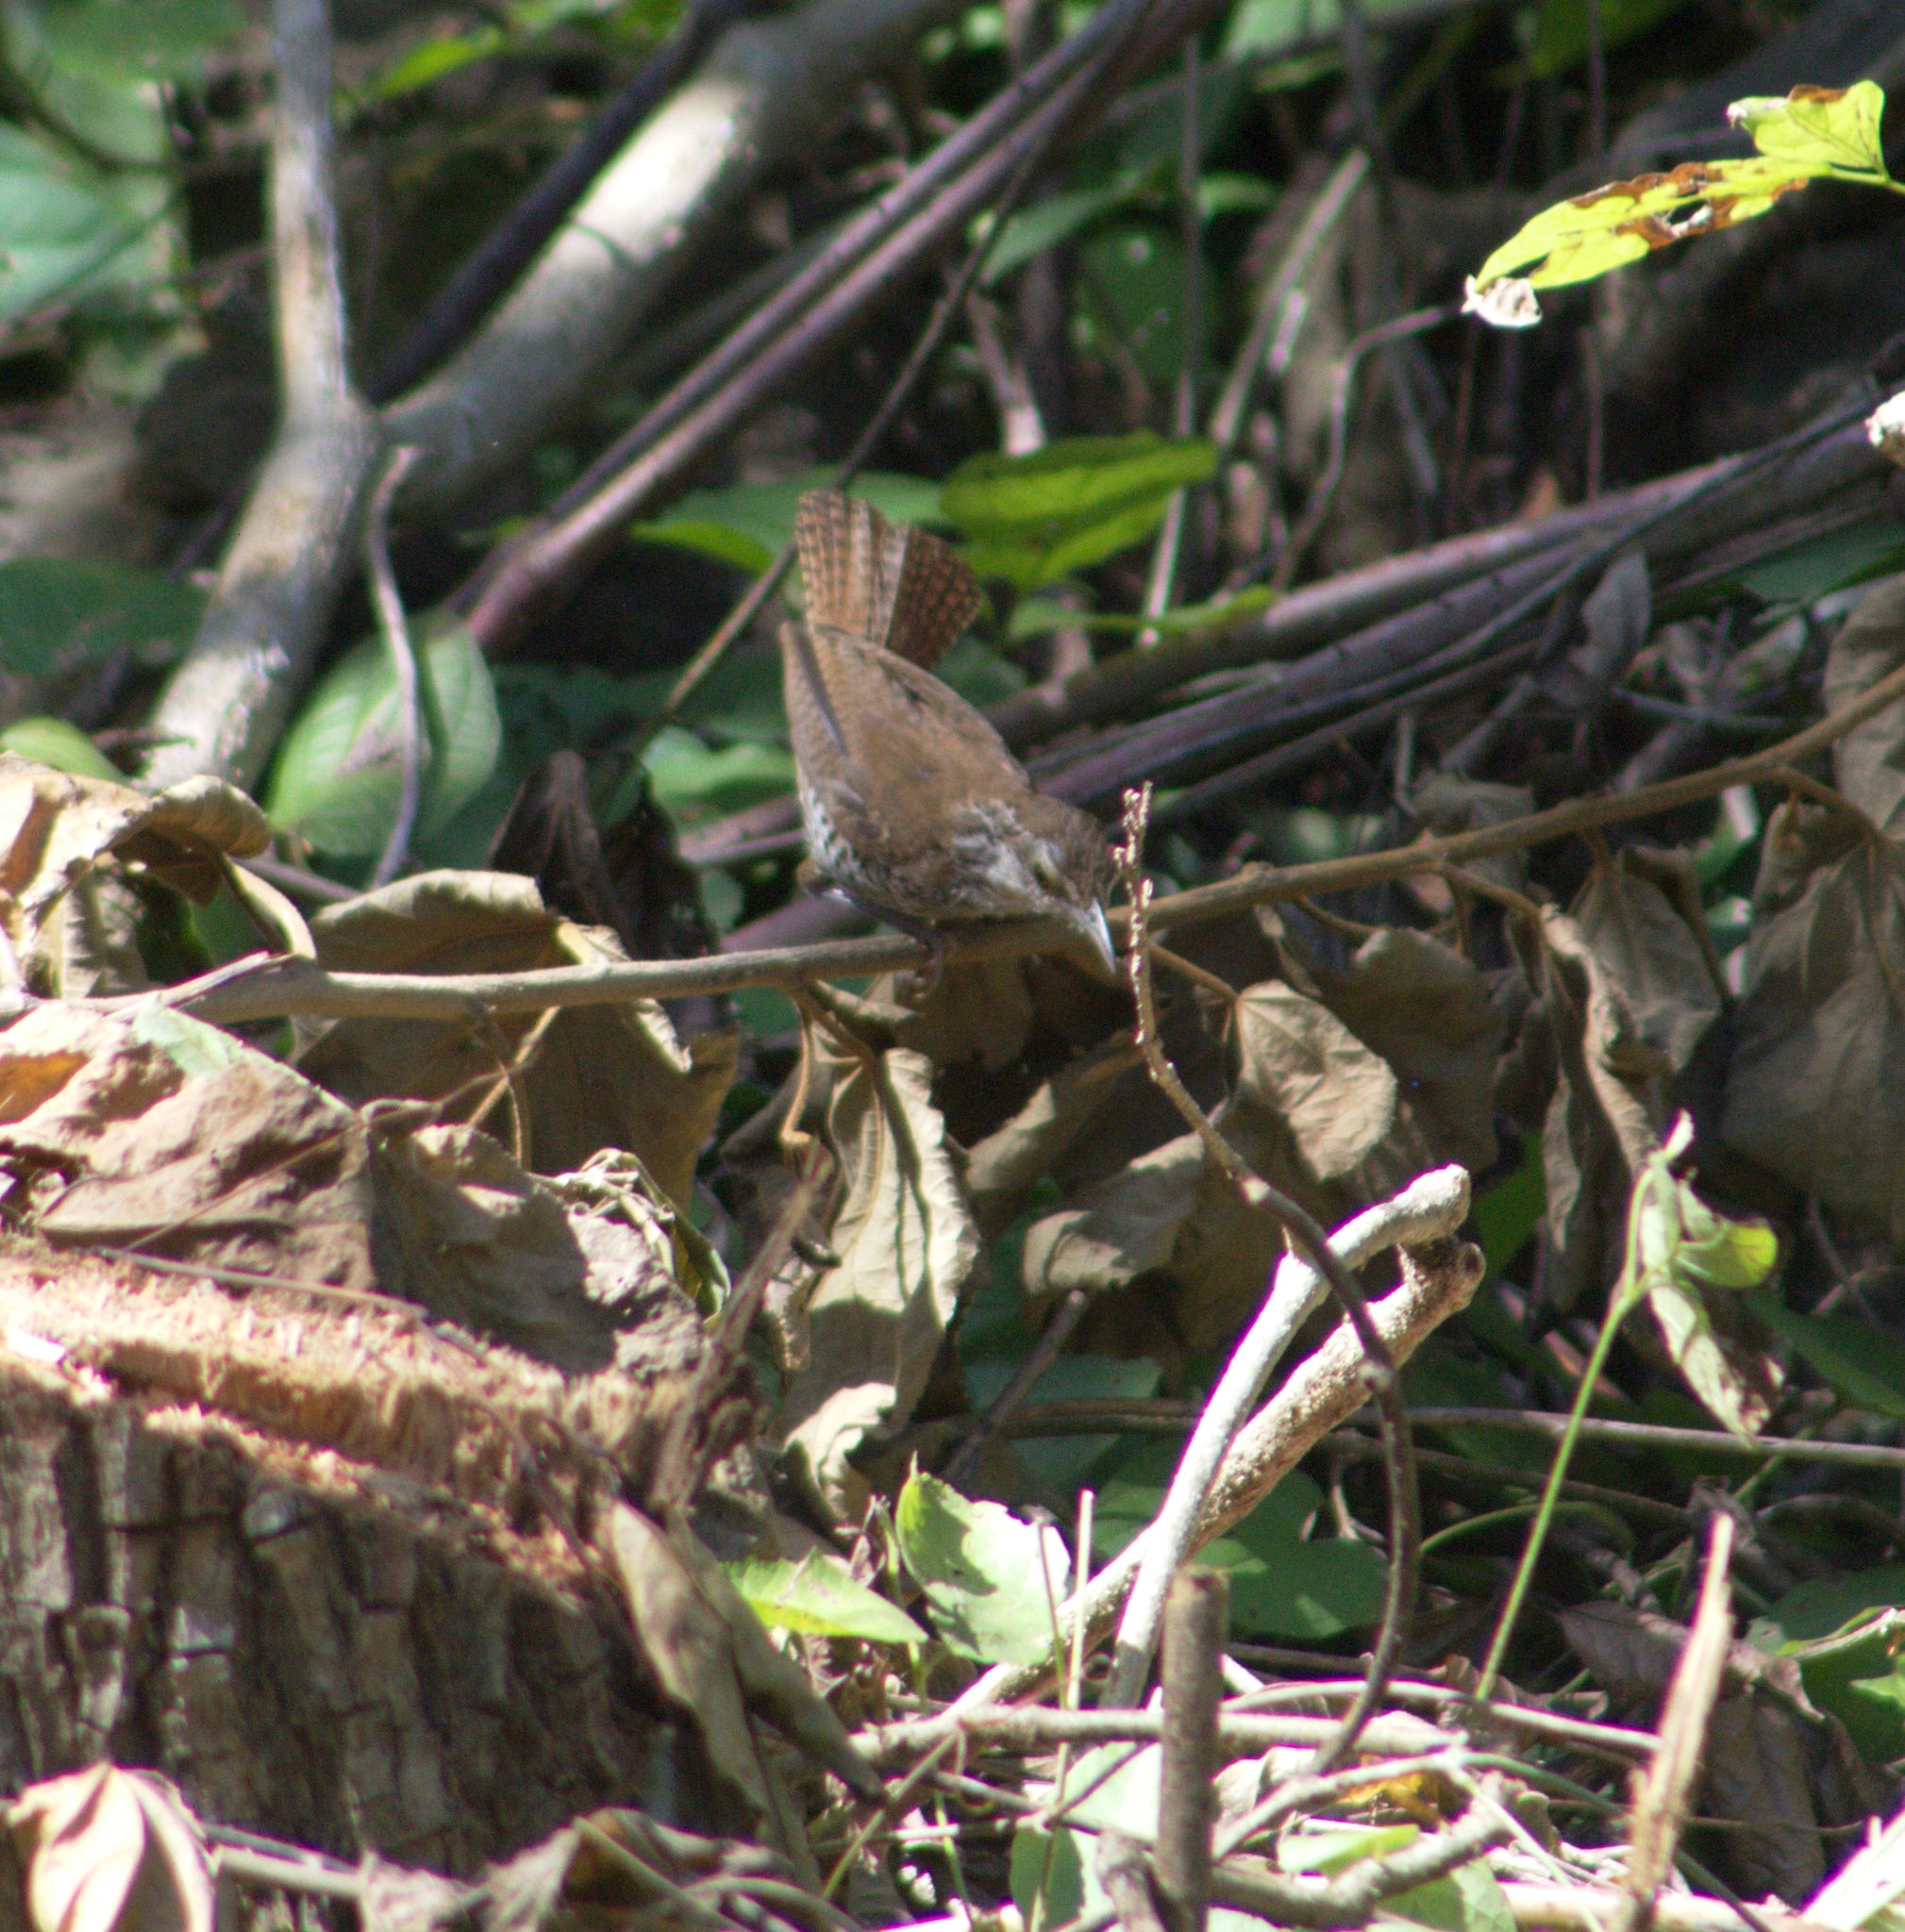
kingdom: Animalia
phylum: Chordata
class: Aves
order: Passeriformes
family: Troglodytidae
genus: Thryophilus
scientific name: Thryophilus pleurostictus
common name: Banded wren
